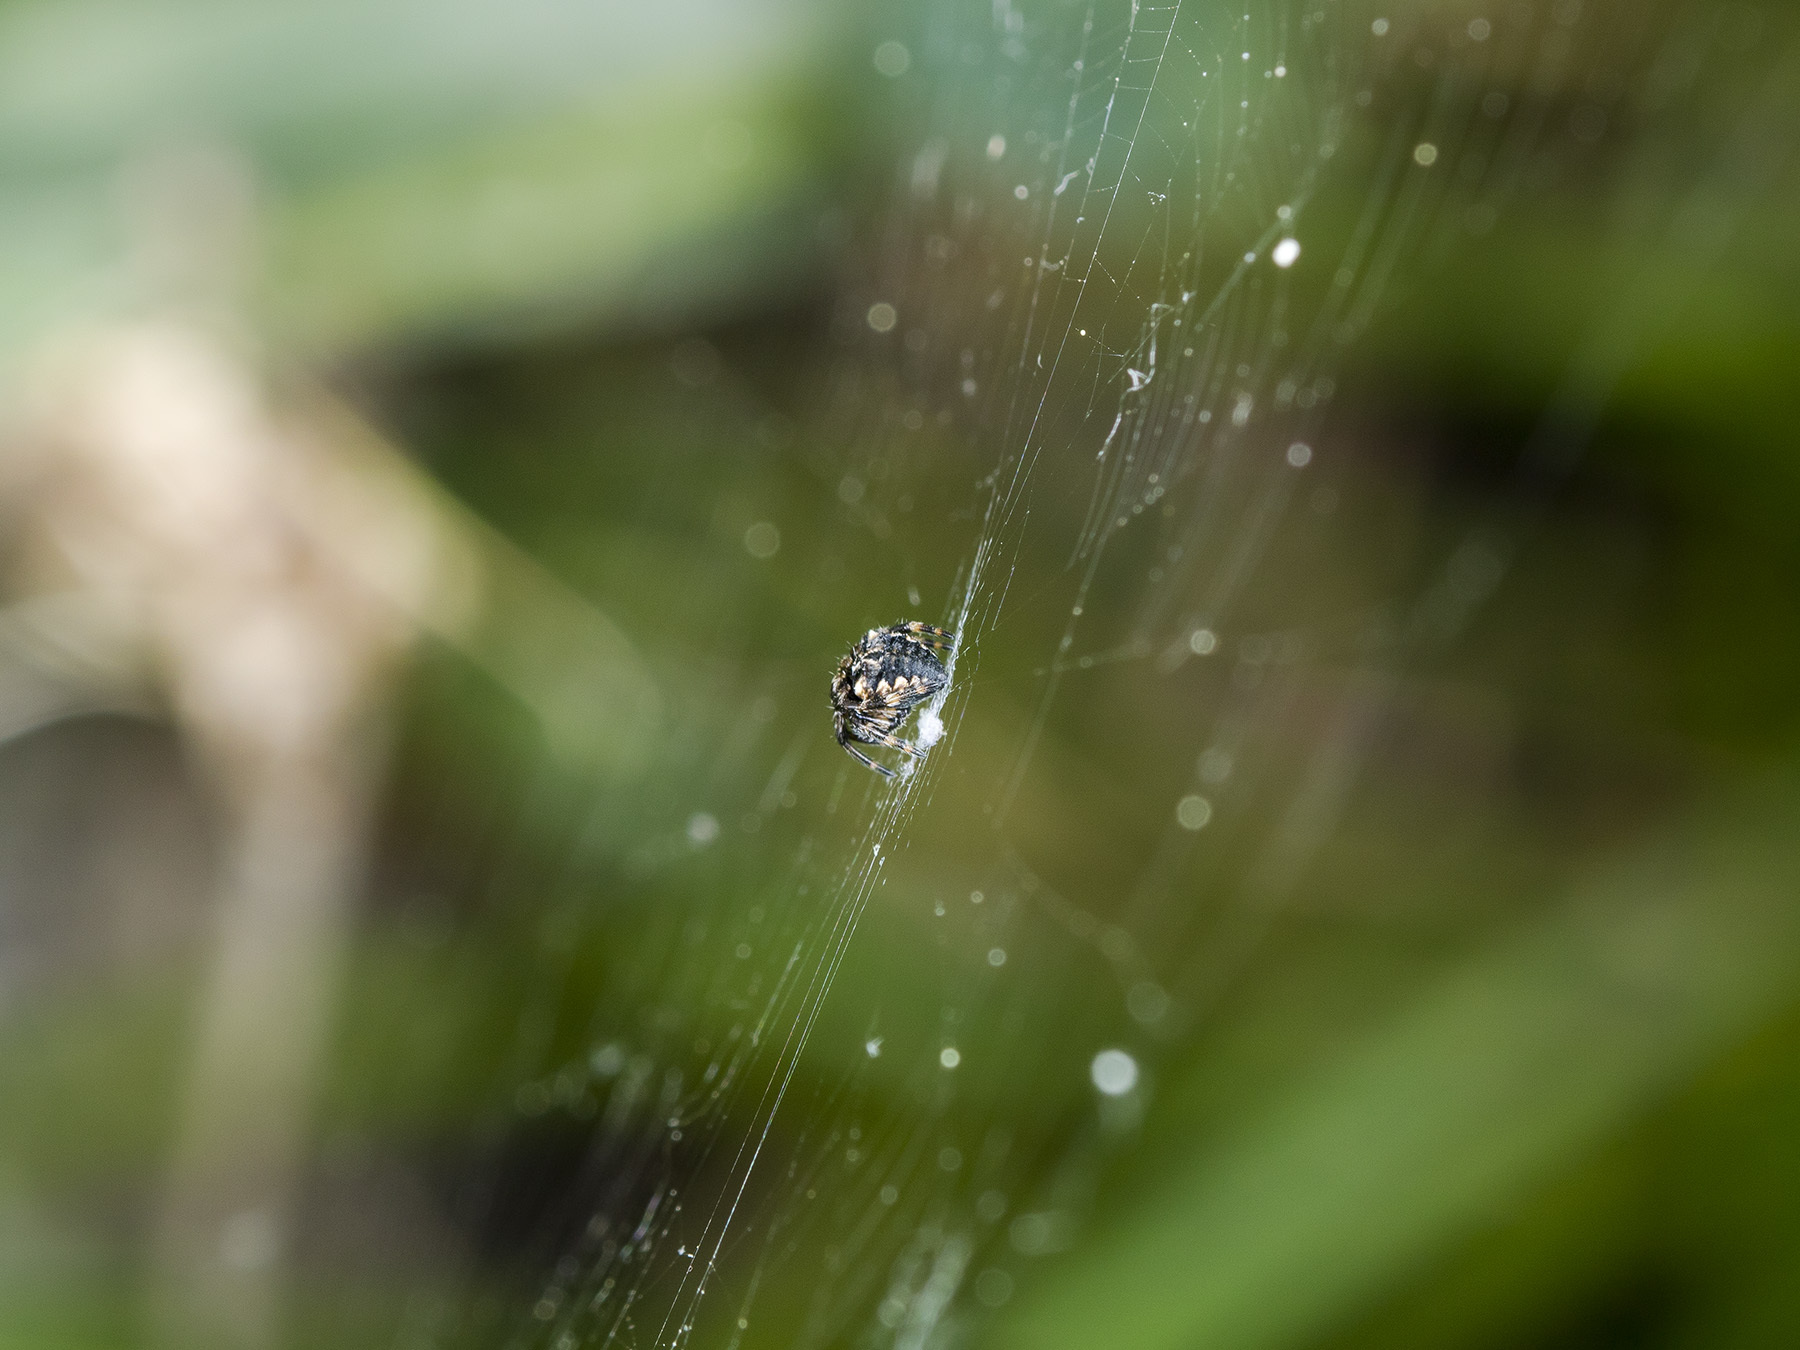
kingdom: Animalia
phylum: Arthropoda
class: Arachnida
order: Araneae
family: Araneidae
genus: Araneus
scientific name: Araneus grossus
